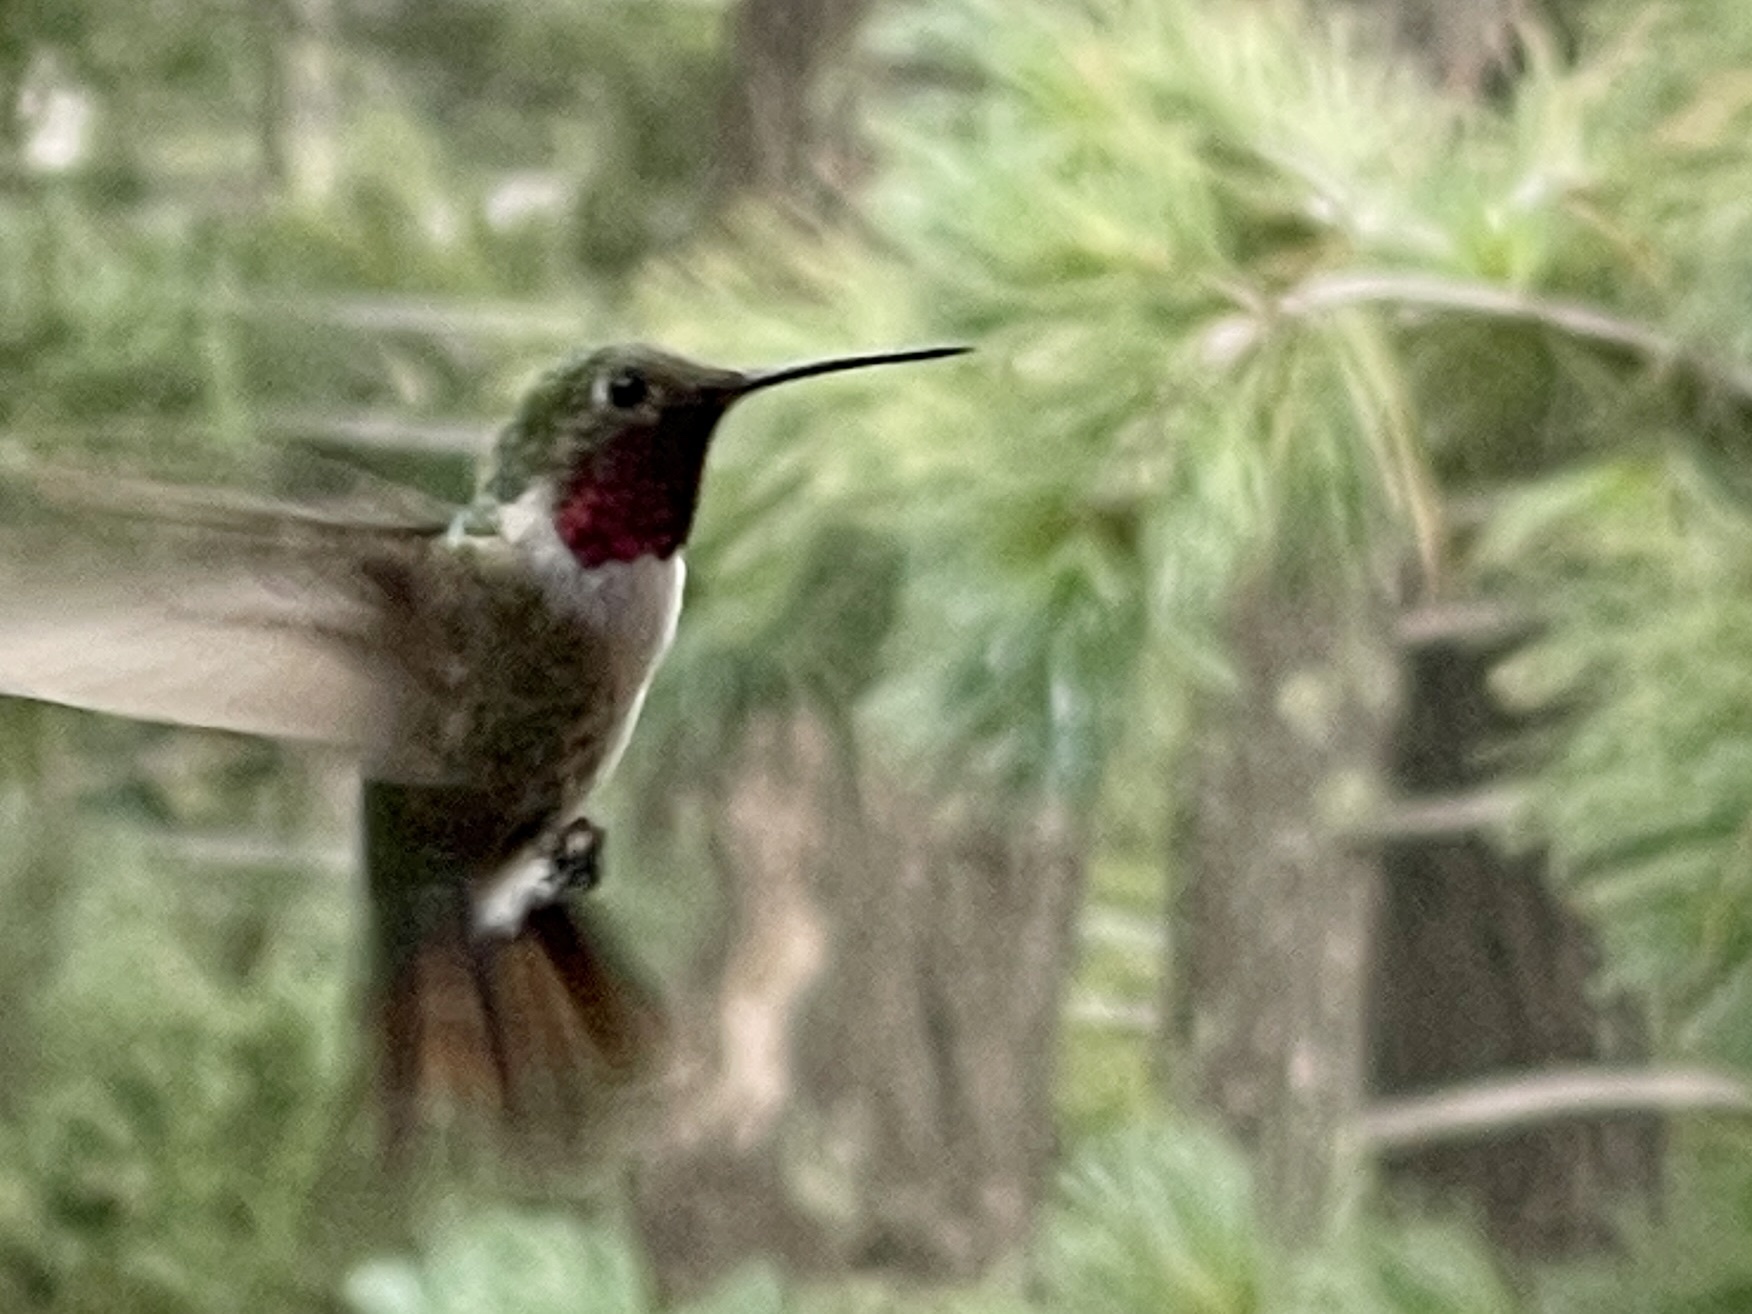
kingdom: Animalia
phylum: Chordata
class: Aves
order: Apodiformes
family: Trochilidae
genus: Selasphorus
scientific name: Selasphorus platycercus
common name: Broad-tailed hummingbird
